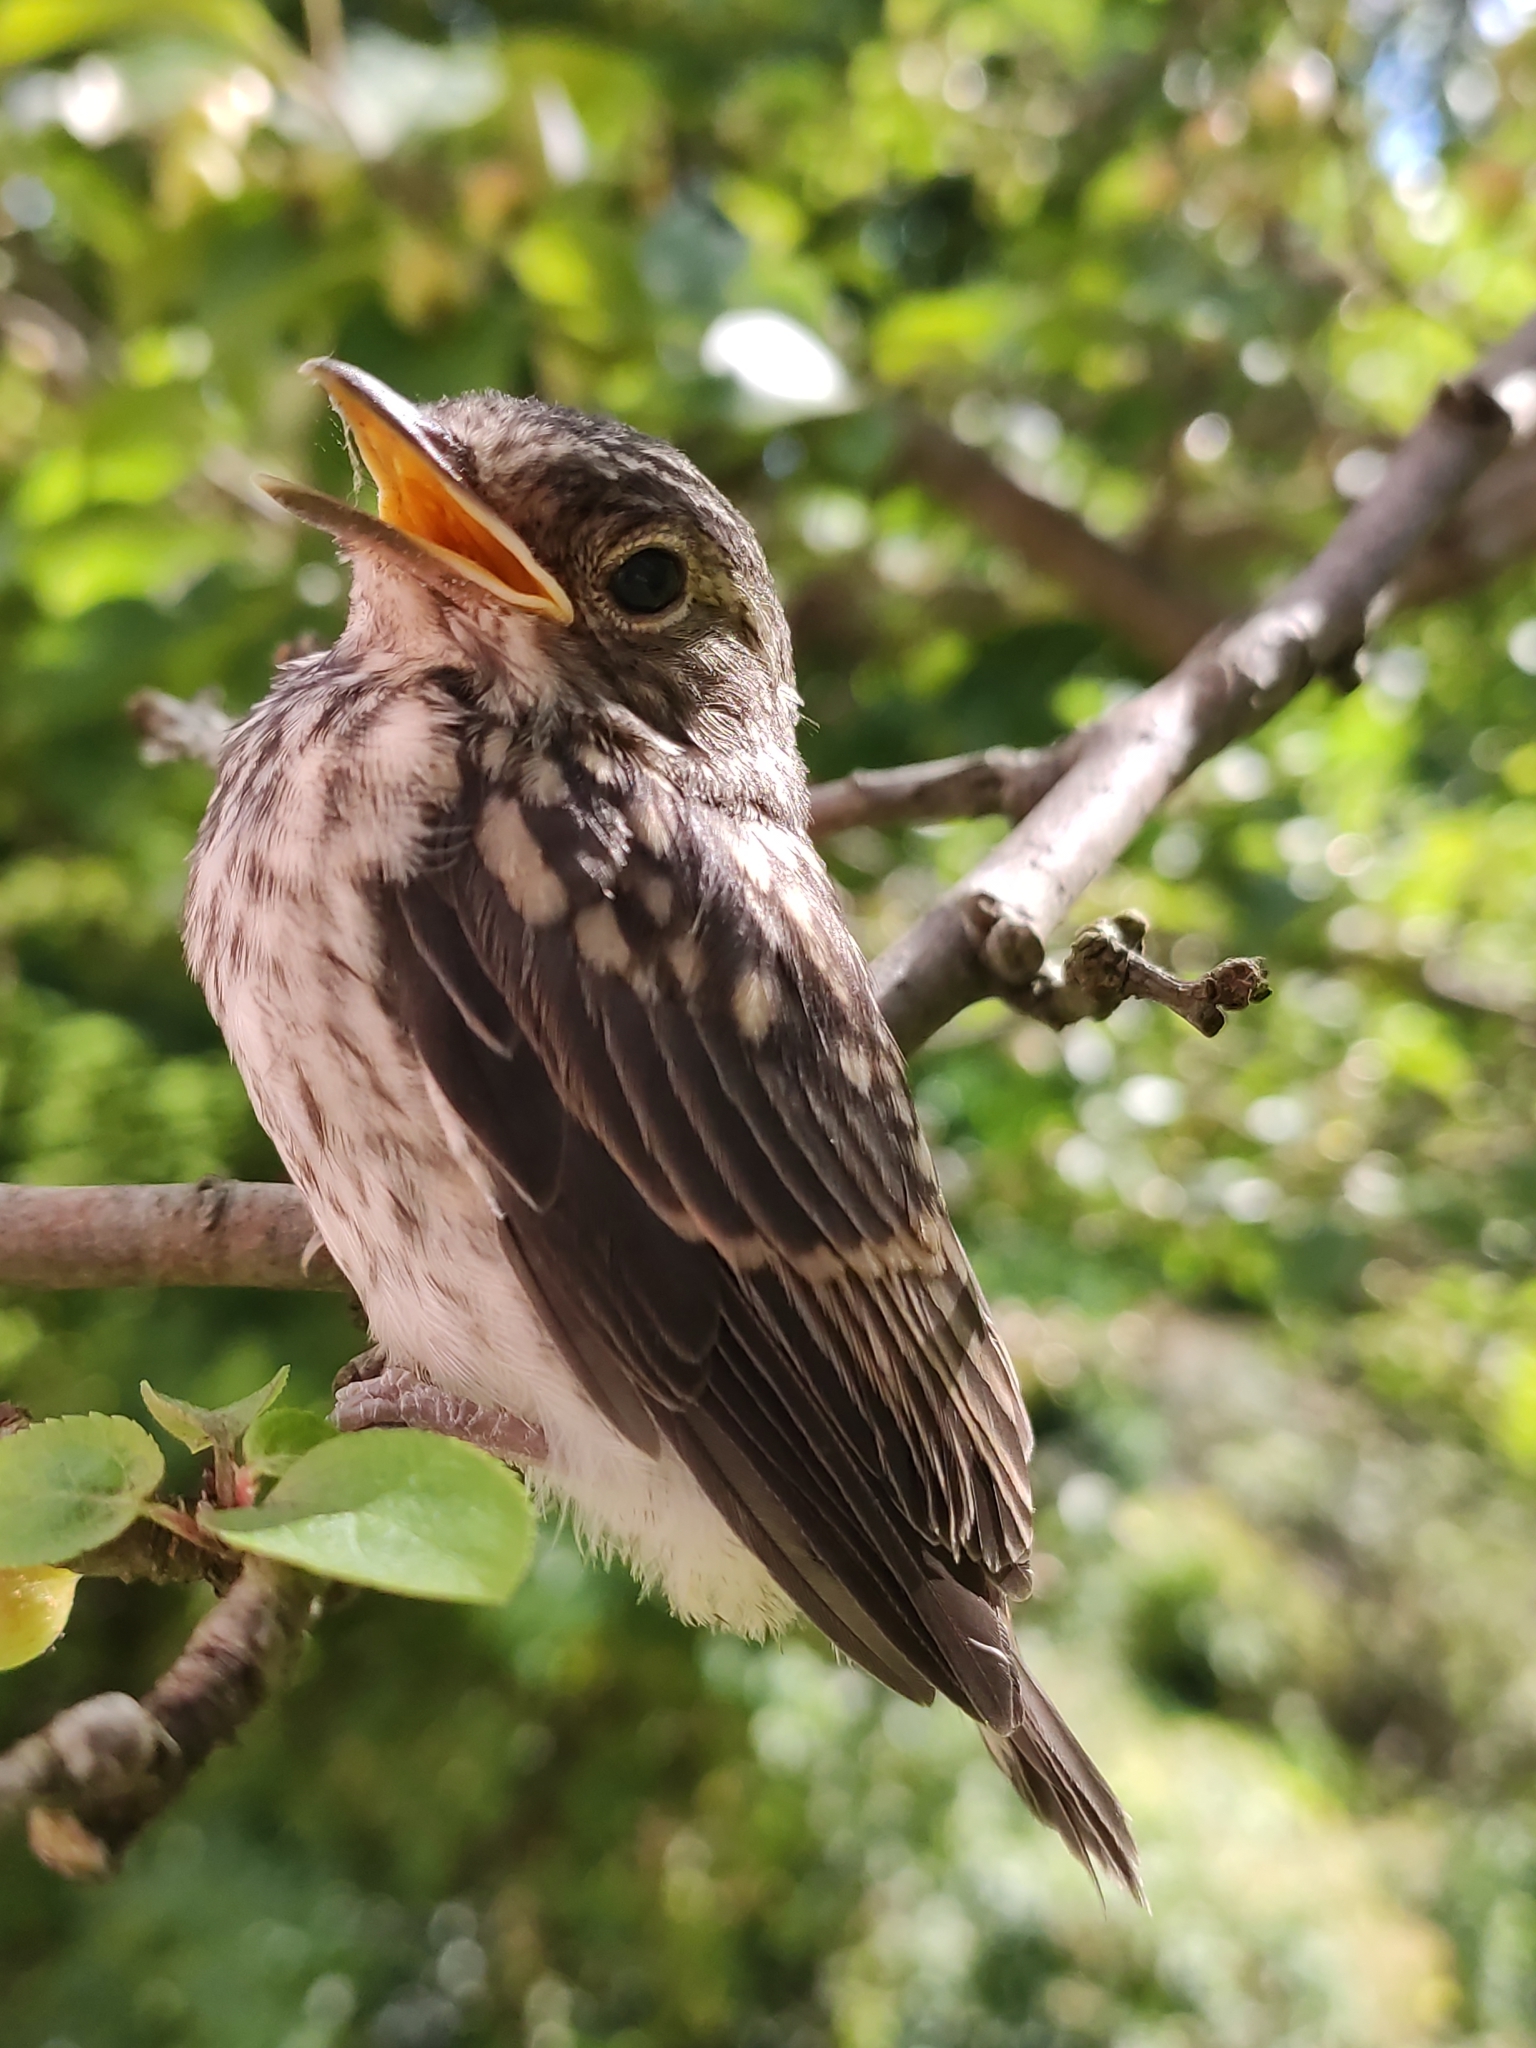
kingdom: Animalia
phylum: Chordata
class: Aves
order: Passeriformes
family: Muscicapidae
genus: Muscicapa
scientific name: Muscicapa striata
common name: Spotted flycatcher
